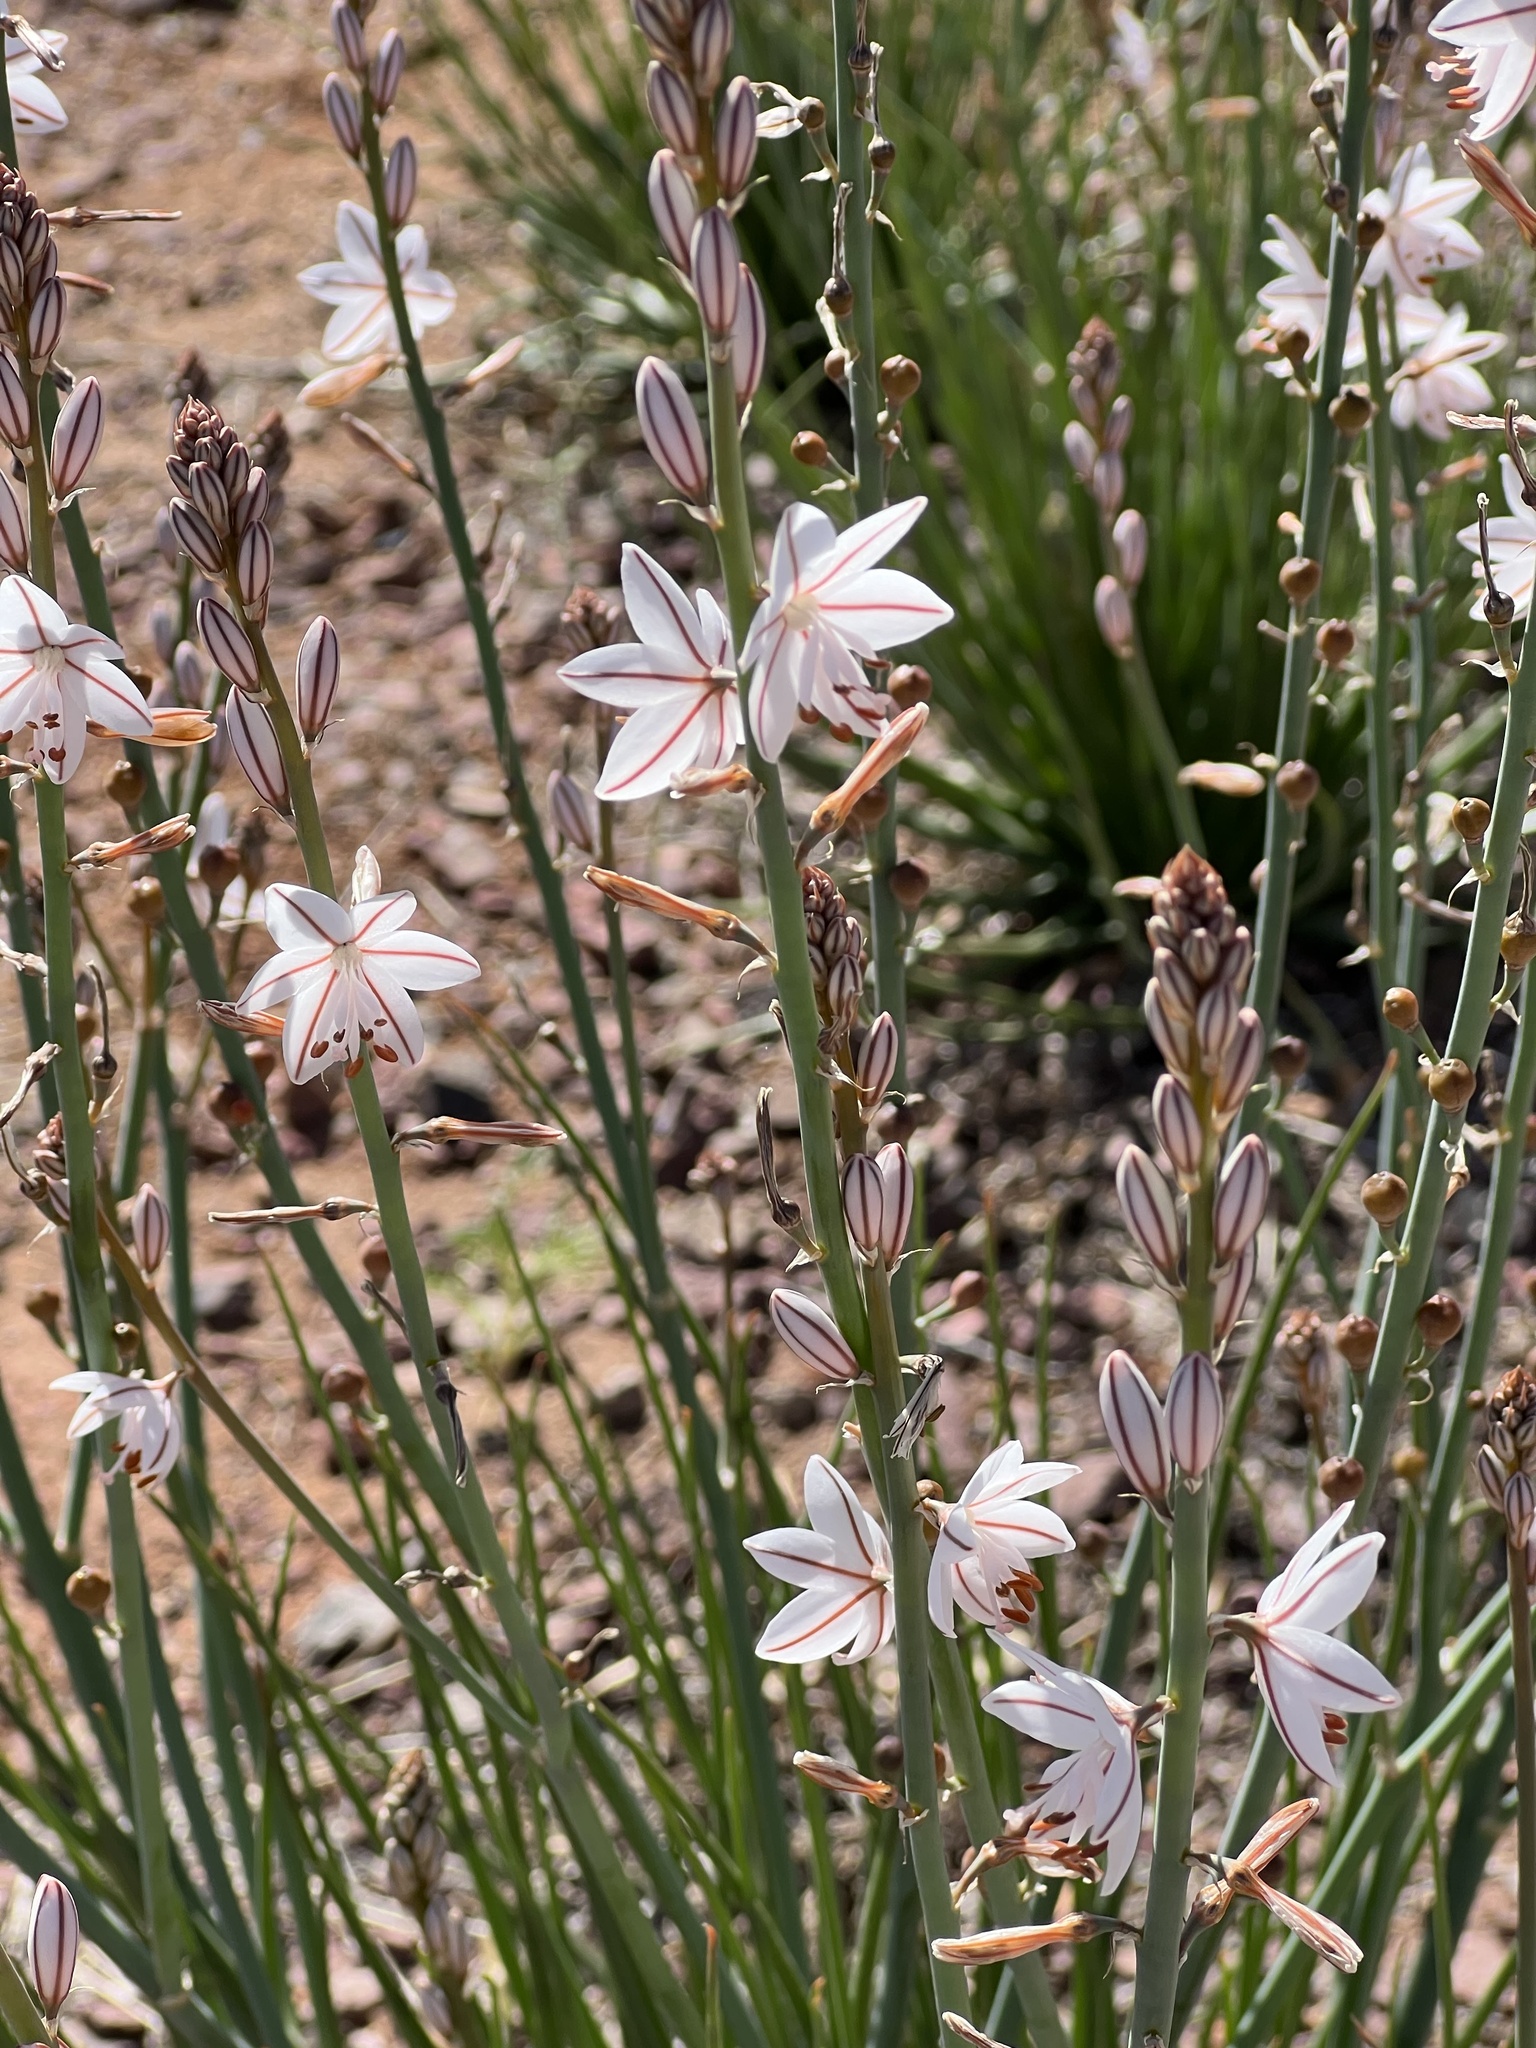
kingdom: Plantae
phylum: Tracheophyta
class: Liliopsida
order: Asparagales
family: Asphodelaceae
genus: Asphodelus
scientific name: Asphodelus fistulosus
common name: Onionweed
